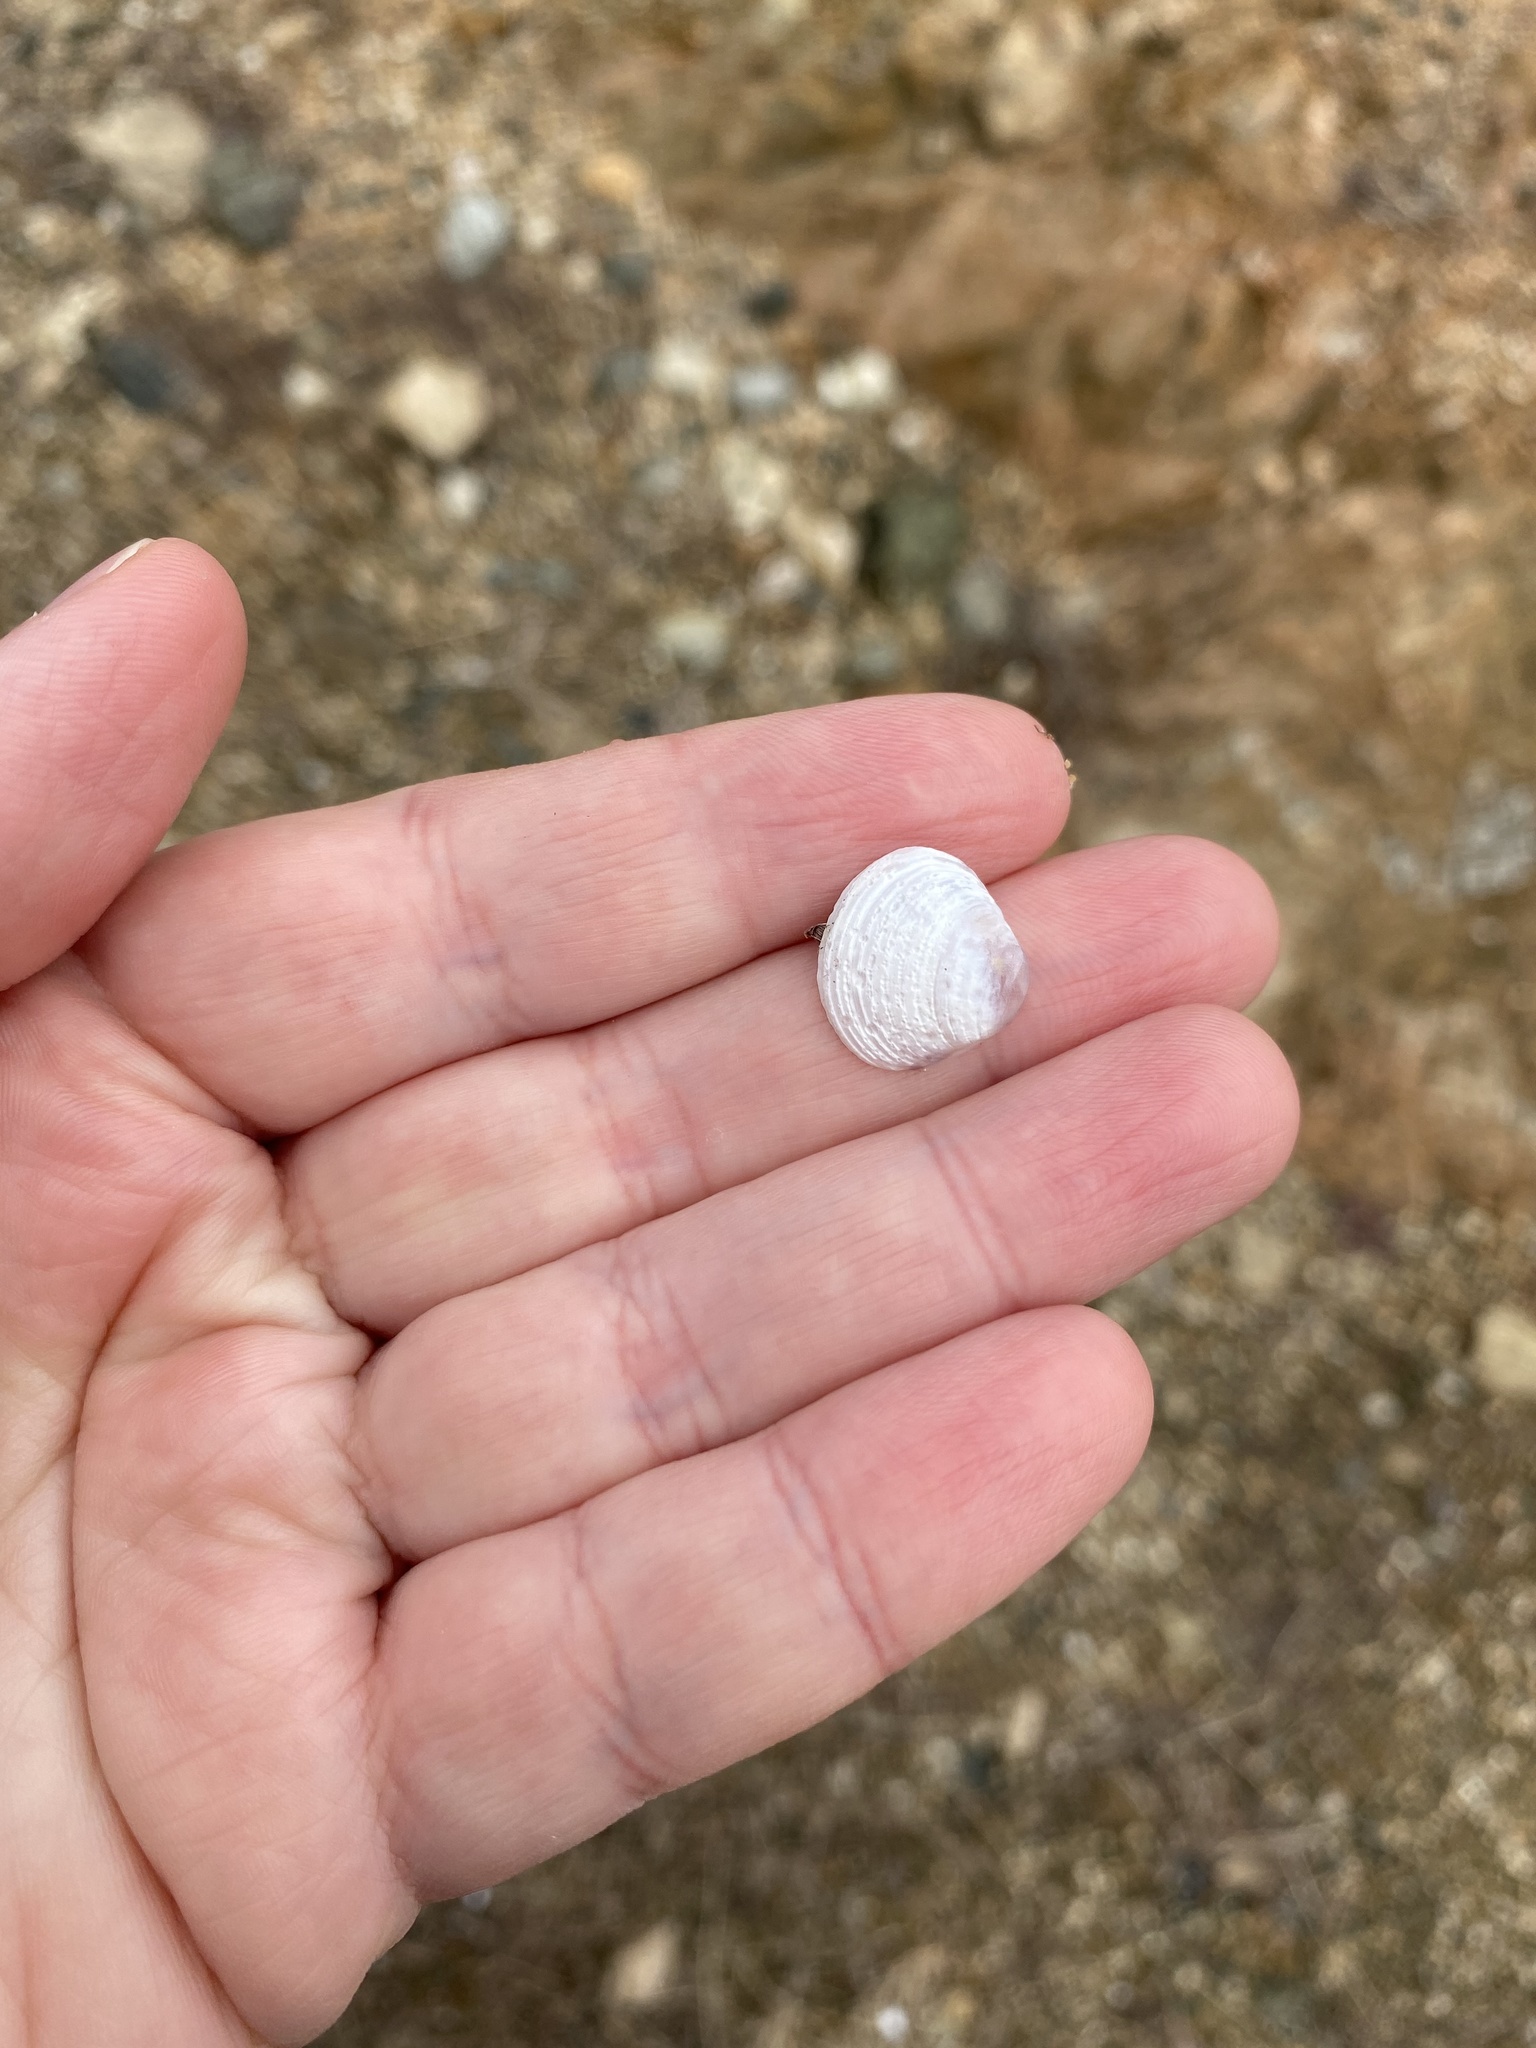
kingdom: Animalia
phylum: Mollusca
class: Bivalvia
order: Venerida
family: Cyrenidae
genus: Corbicula
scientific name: Corbicula fluminea
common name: Asian clam
